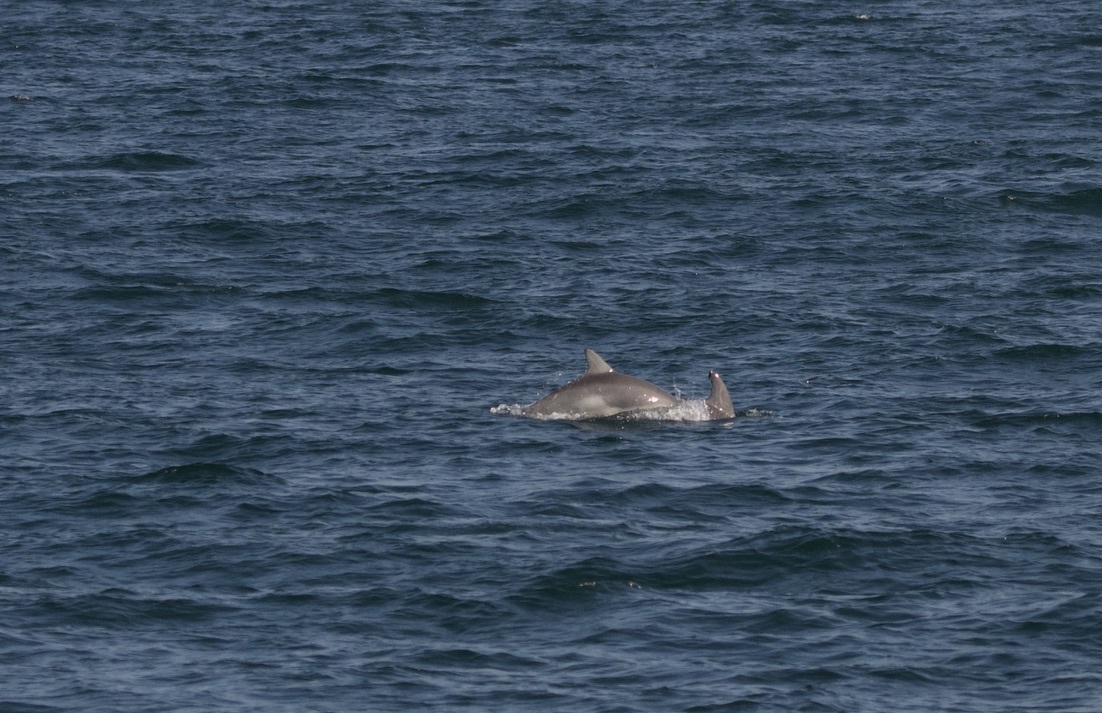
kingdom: Animalia
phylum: Chordata
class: Mammalia
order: Cetacea
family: Delphinidae
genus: Tursiops
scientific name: Tursiops truncatus
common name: Bottlenose dolphin
